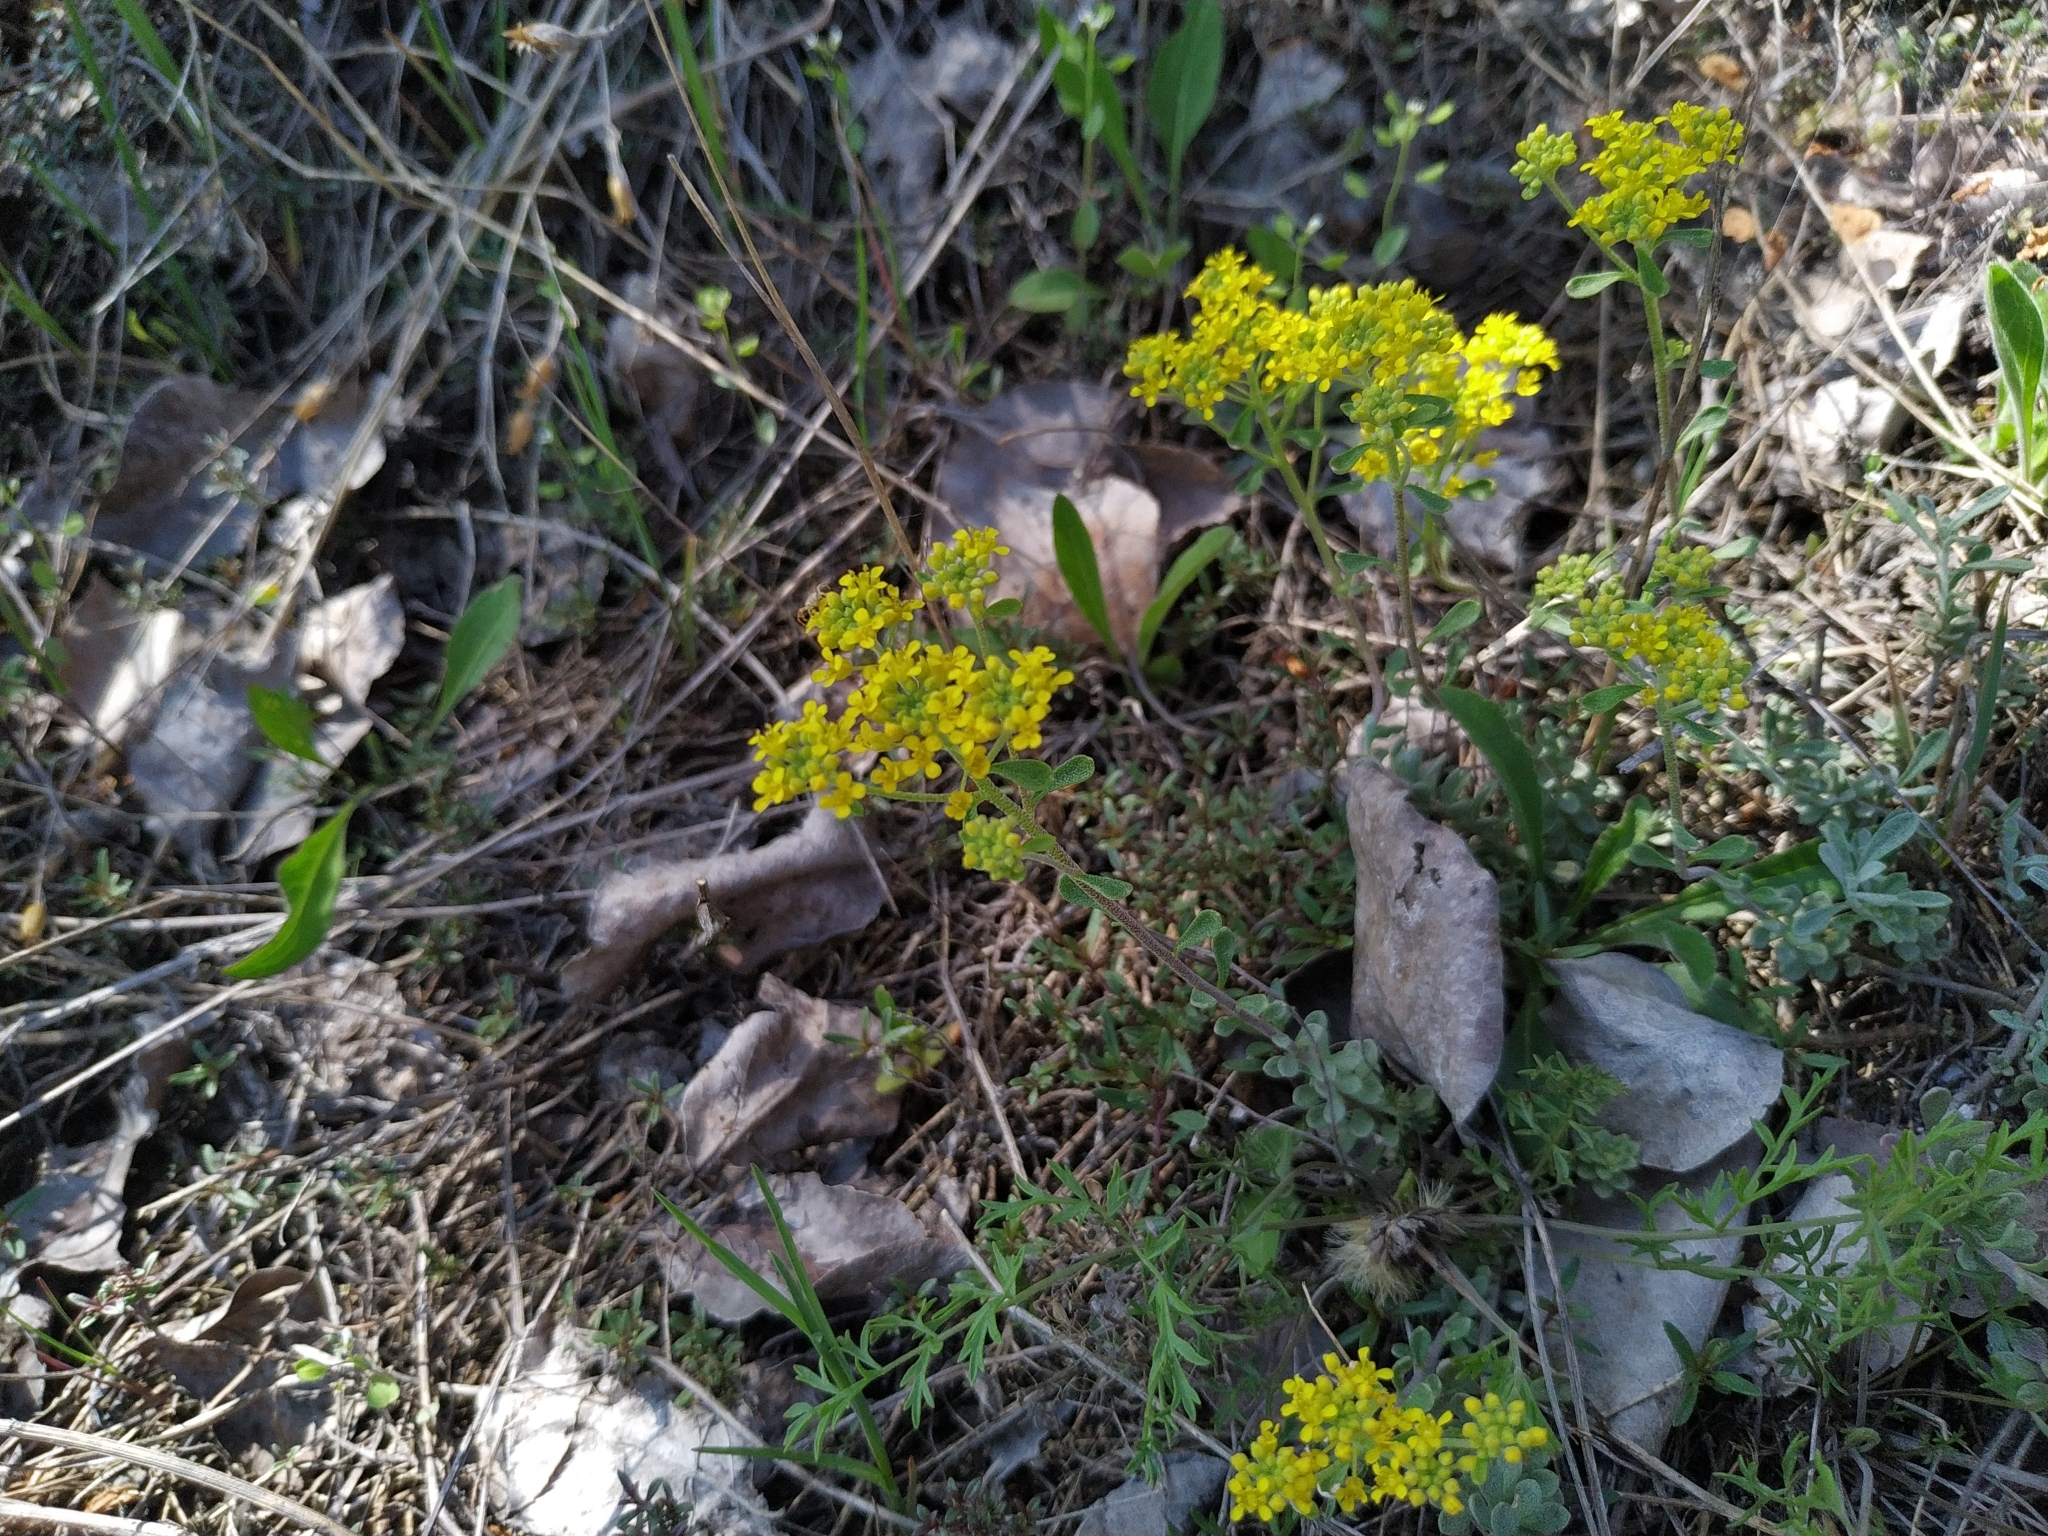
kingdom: Plantae
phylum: Tracheophyta
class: Magnoliopsida
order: Brassicales
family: Brassicaceae
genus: Odontarrhena
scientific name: Odontarrhena tortuosa
